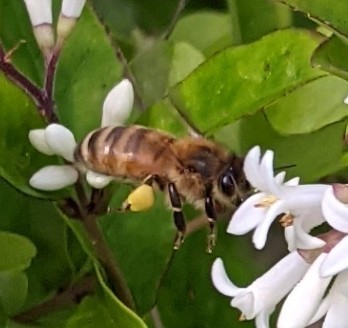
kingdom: Animalia
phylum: Arthropoda
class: Insecta
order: Hymenoptera
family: Apidae
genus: Apis
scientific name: Apis mellifera
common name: Honey bee
